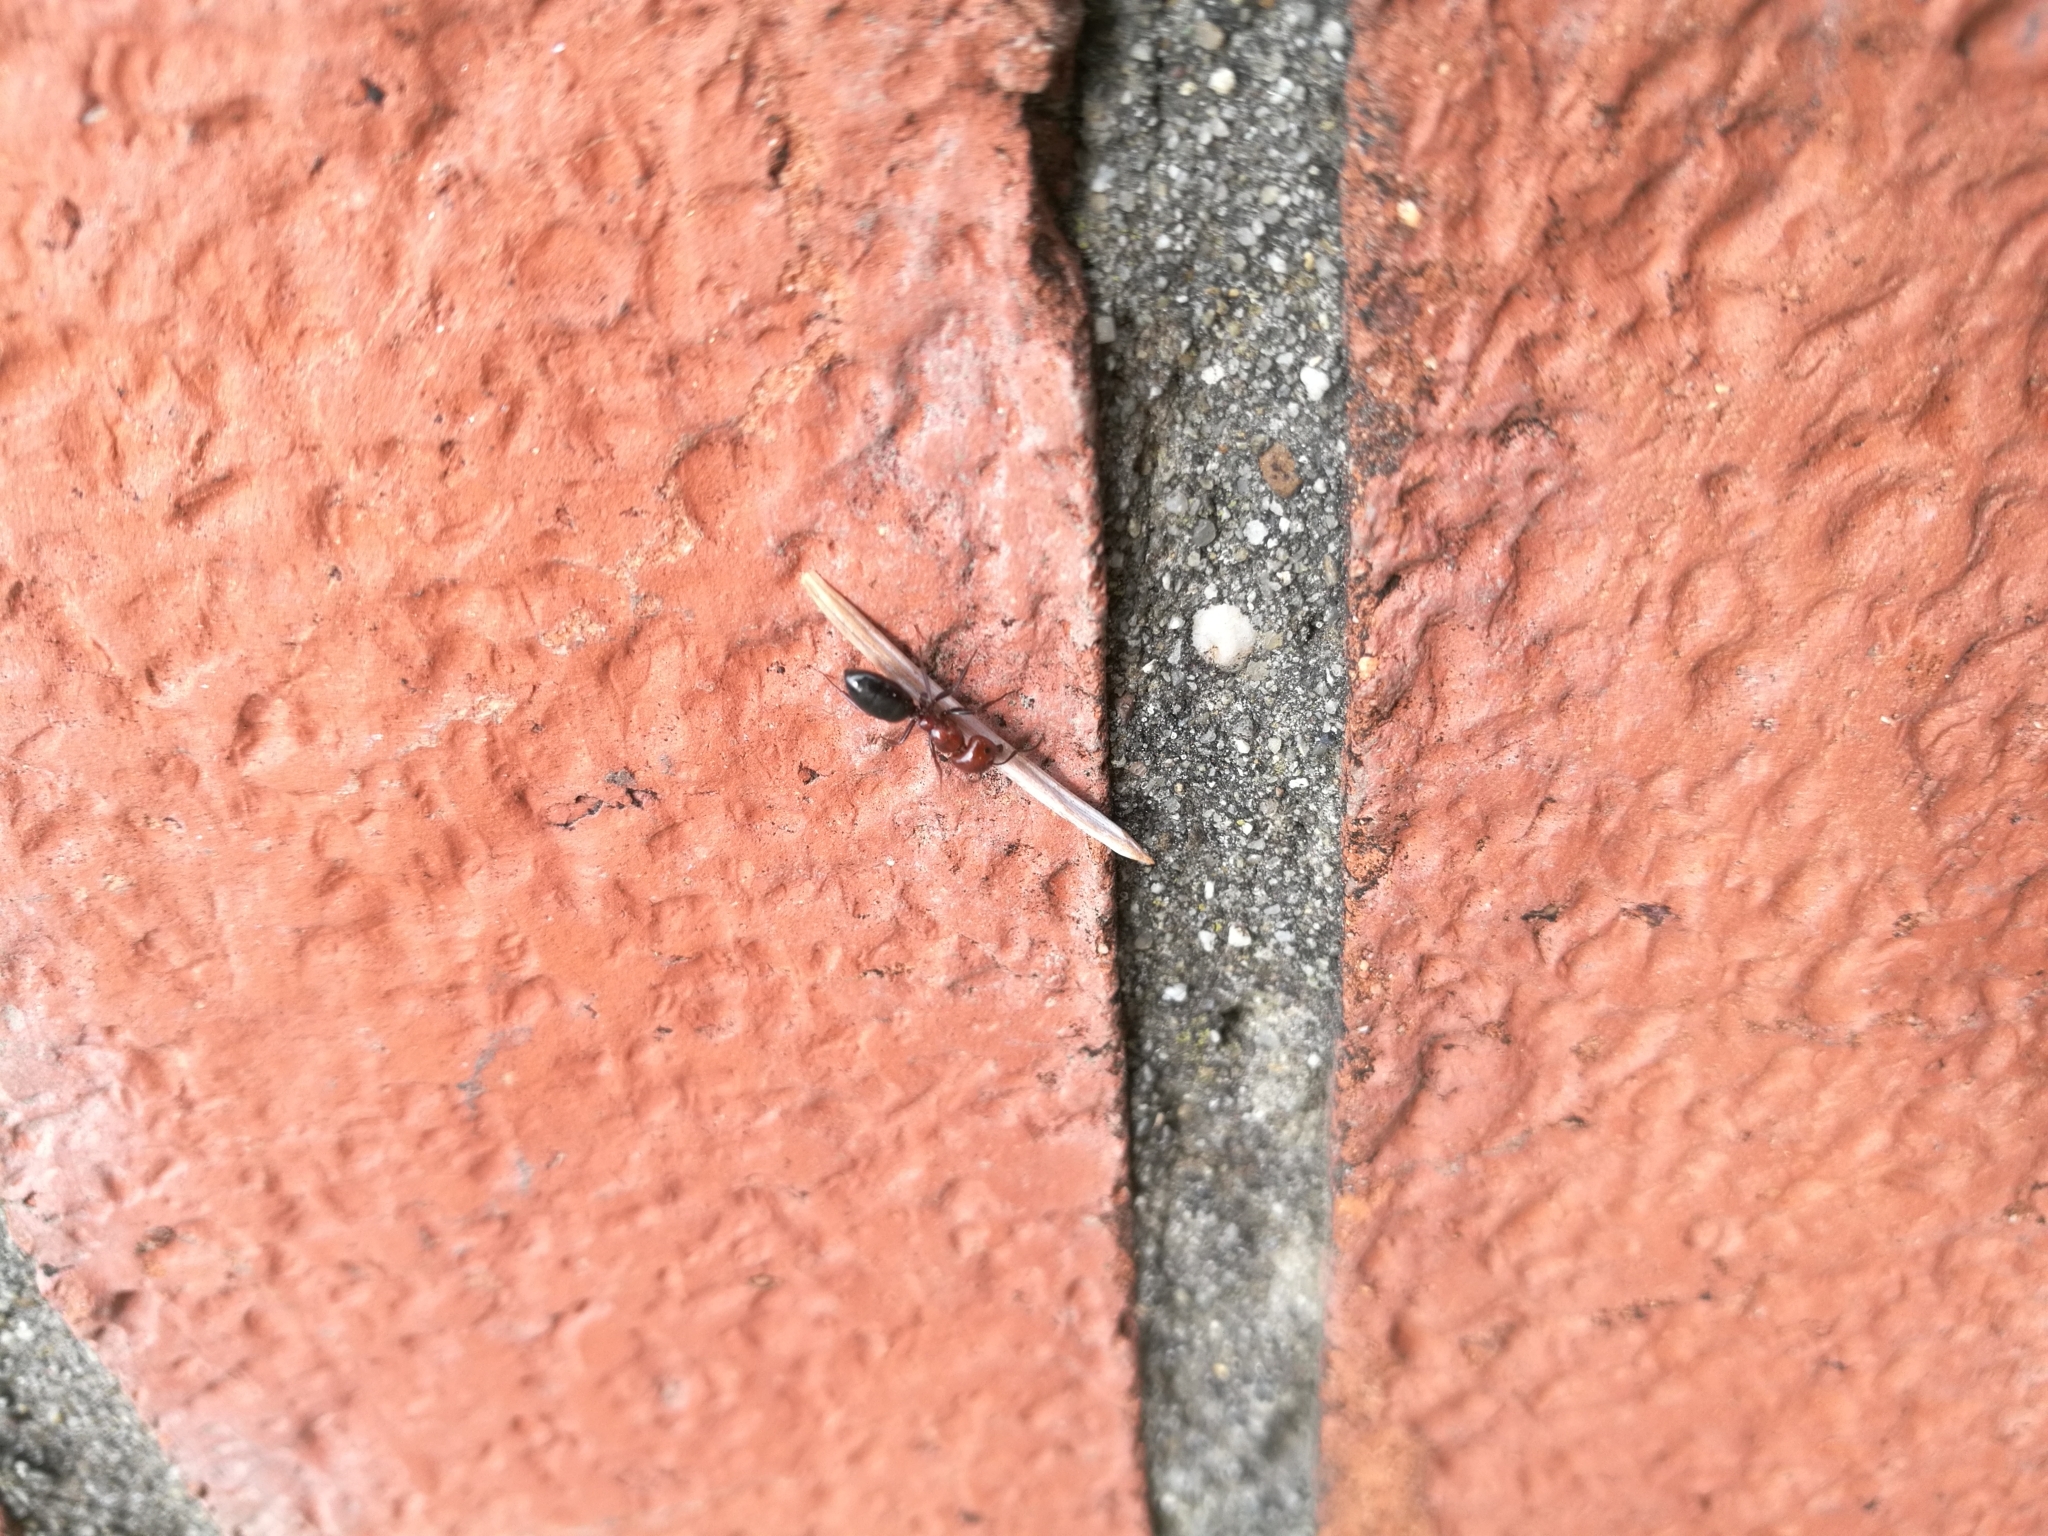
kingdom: Animalia
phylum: Arthropoda
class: Insecta
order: Hymenoptera
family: Formicidae
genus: Camponotus
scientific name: Camponotus lateralis
